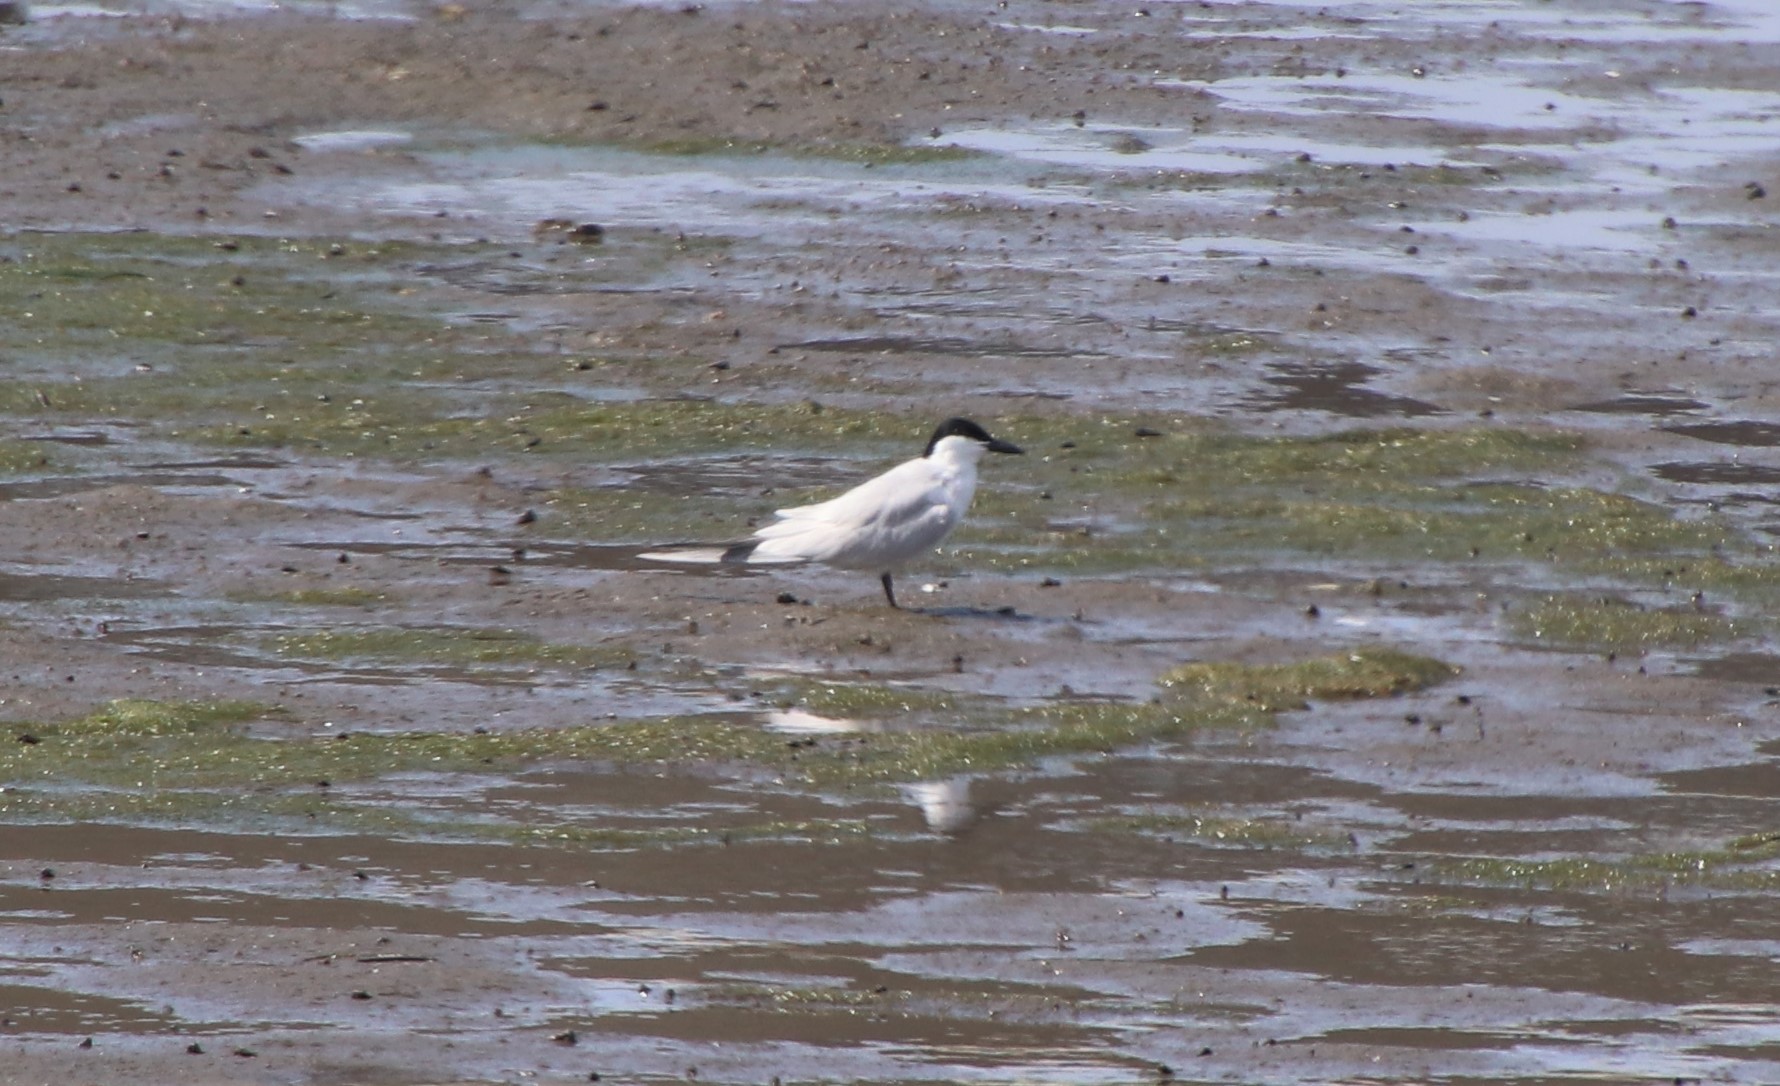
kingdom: Animalia
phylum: Chordata
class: Aves
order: Charadriiformes
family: Laridae
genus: Gelochelidon
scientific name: Gelochelidon nilotica
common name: Gull-billed tern
